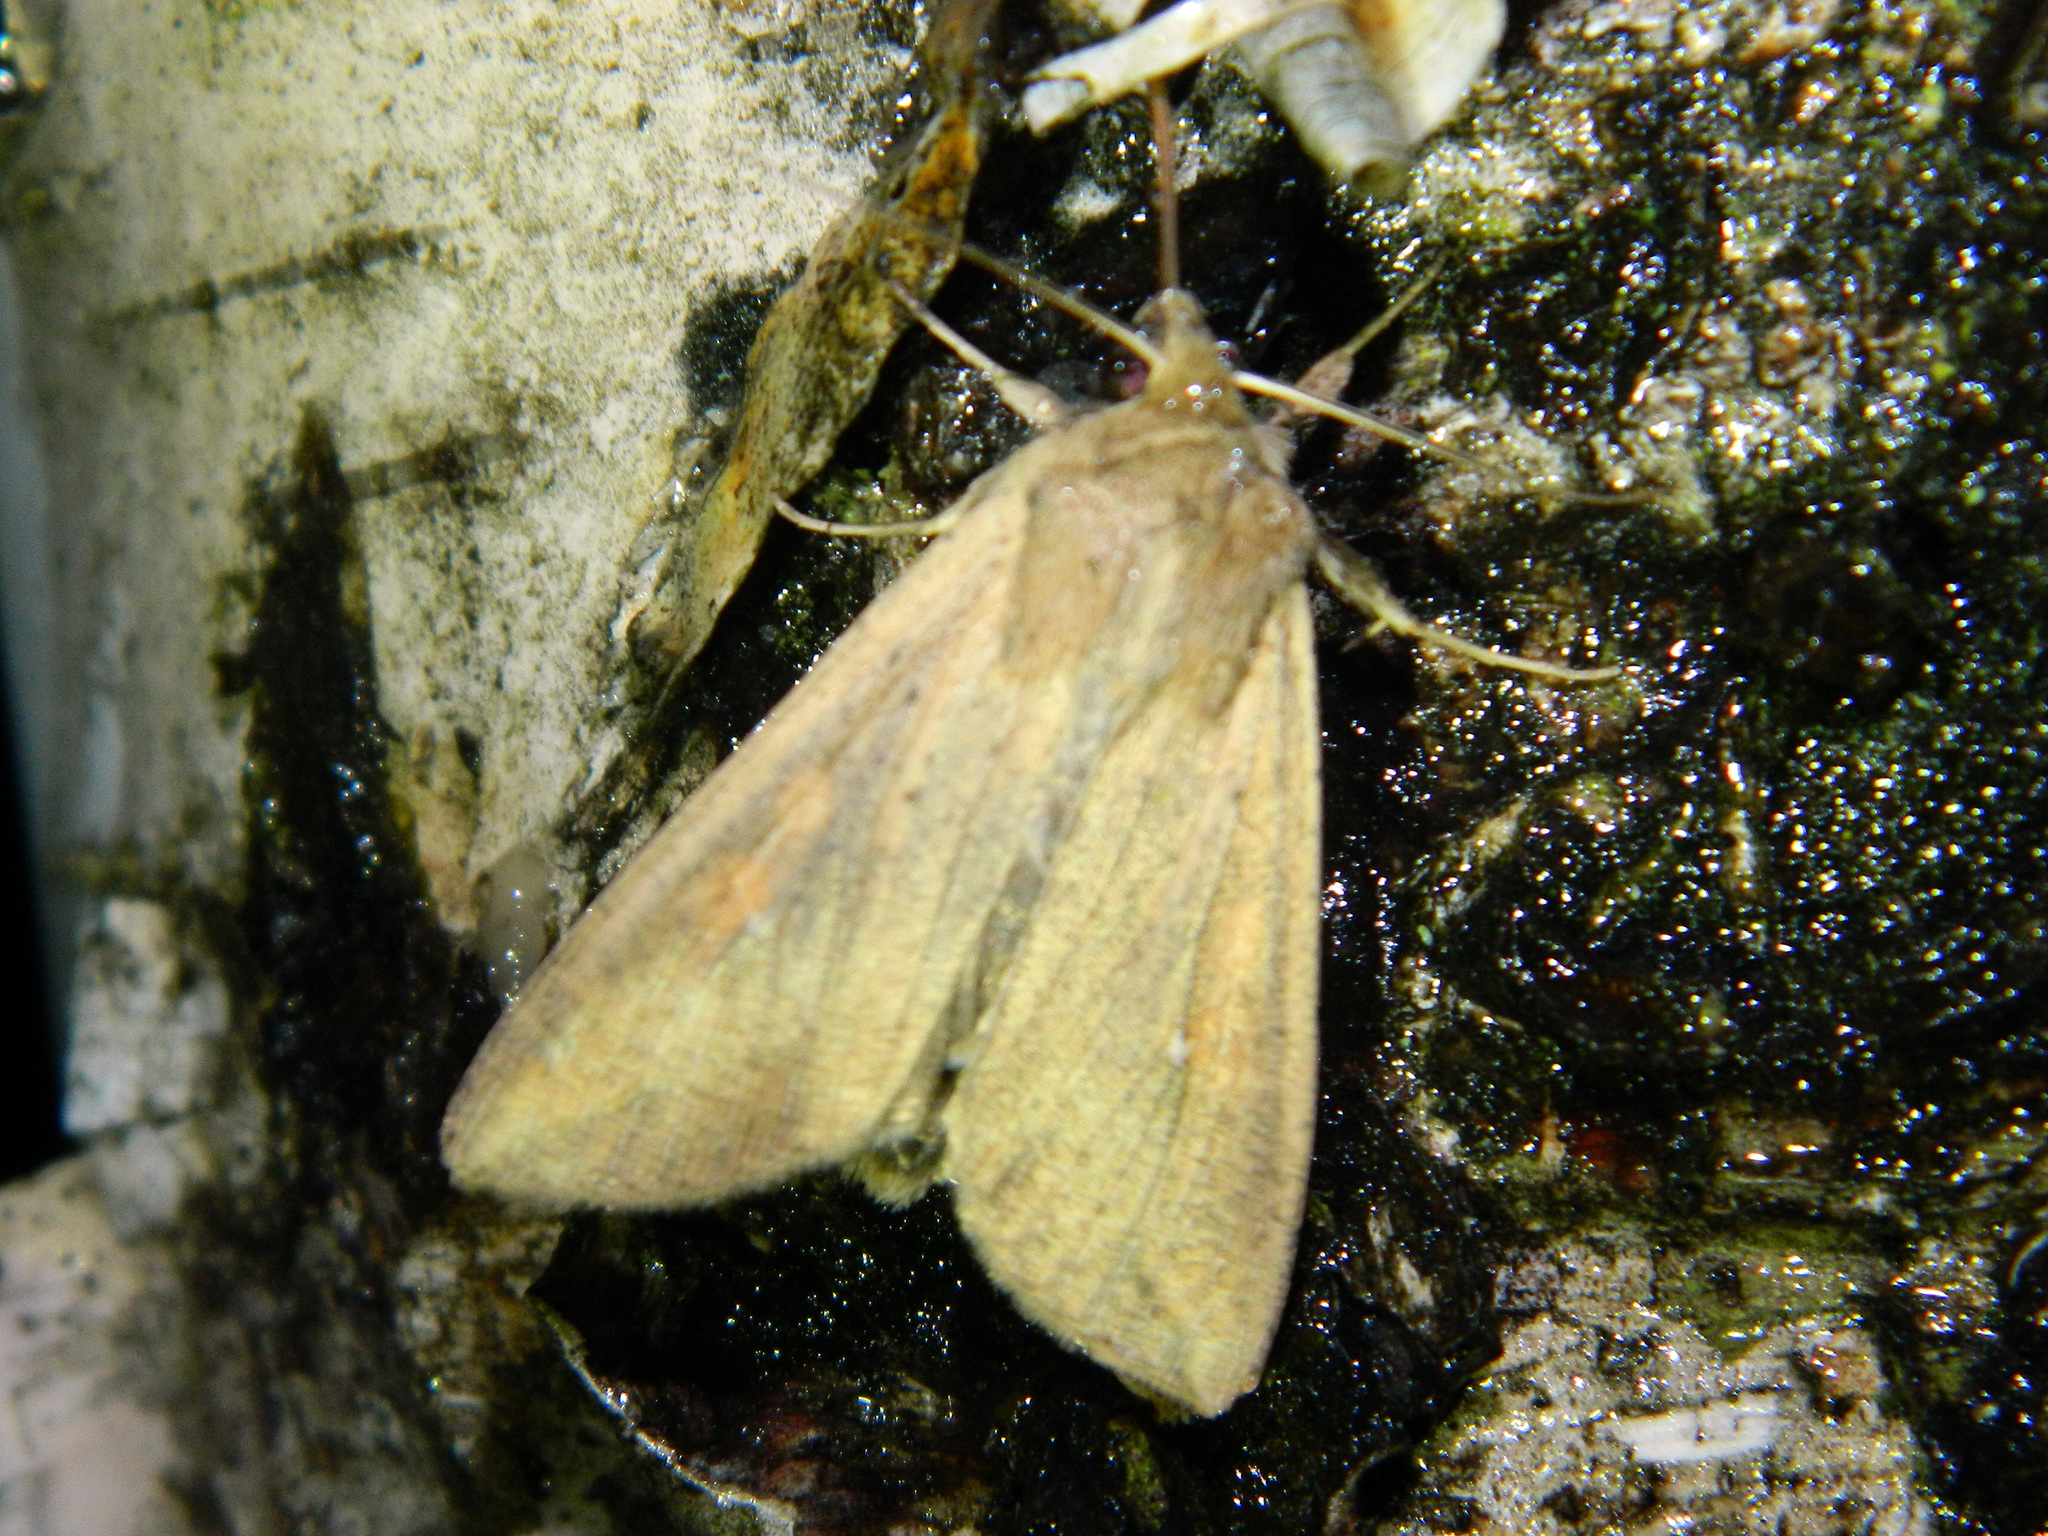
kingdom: Animalia
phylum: Arthropoda
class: Insecta
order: Lepidoptera
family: Noctuidae
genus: Mythimna
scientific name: Mythimna unipuncta
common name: White-speck
